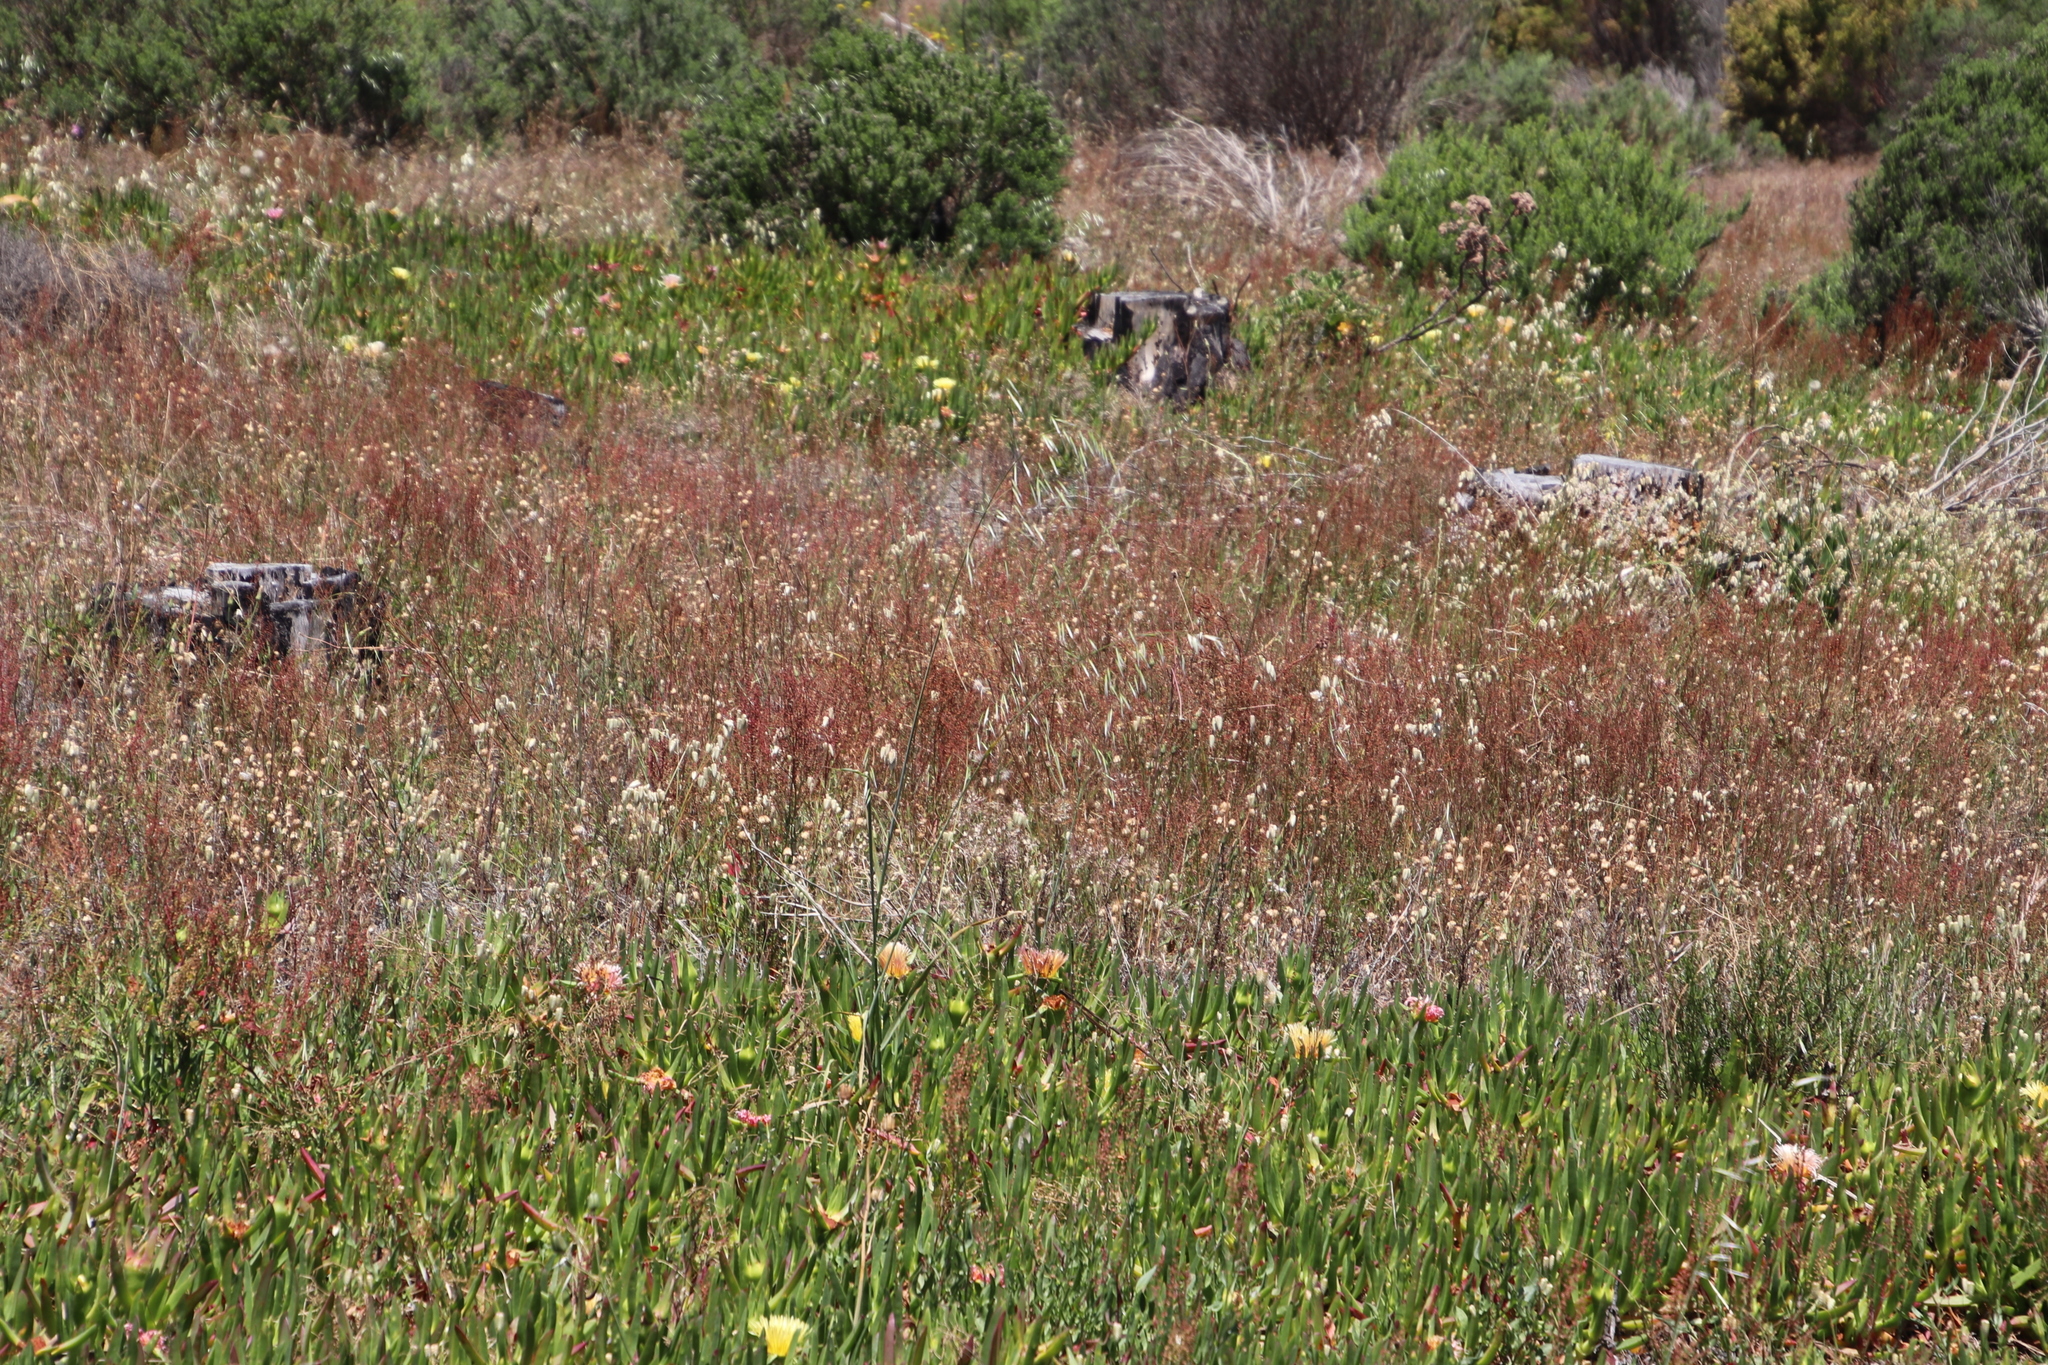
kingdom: Plantae
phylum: Tracheophyta
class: Liliopsida
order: Poales
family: Poaceae
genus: Avena
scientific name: Avena fatua
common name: Wild oat
